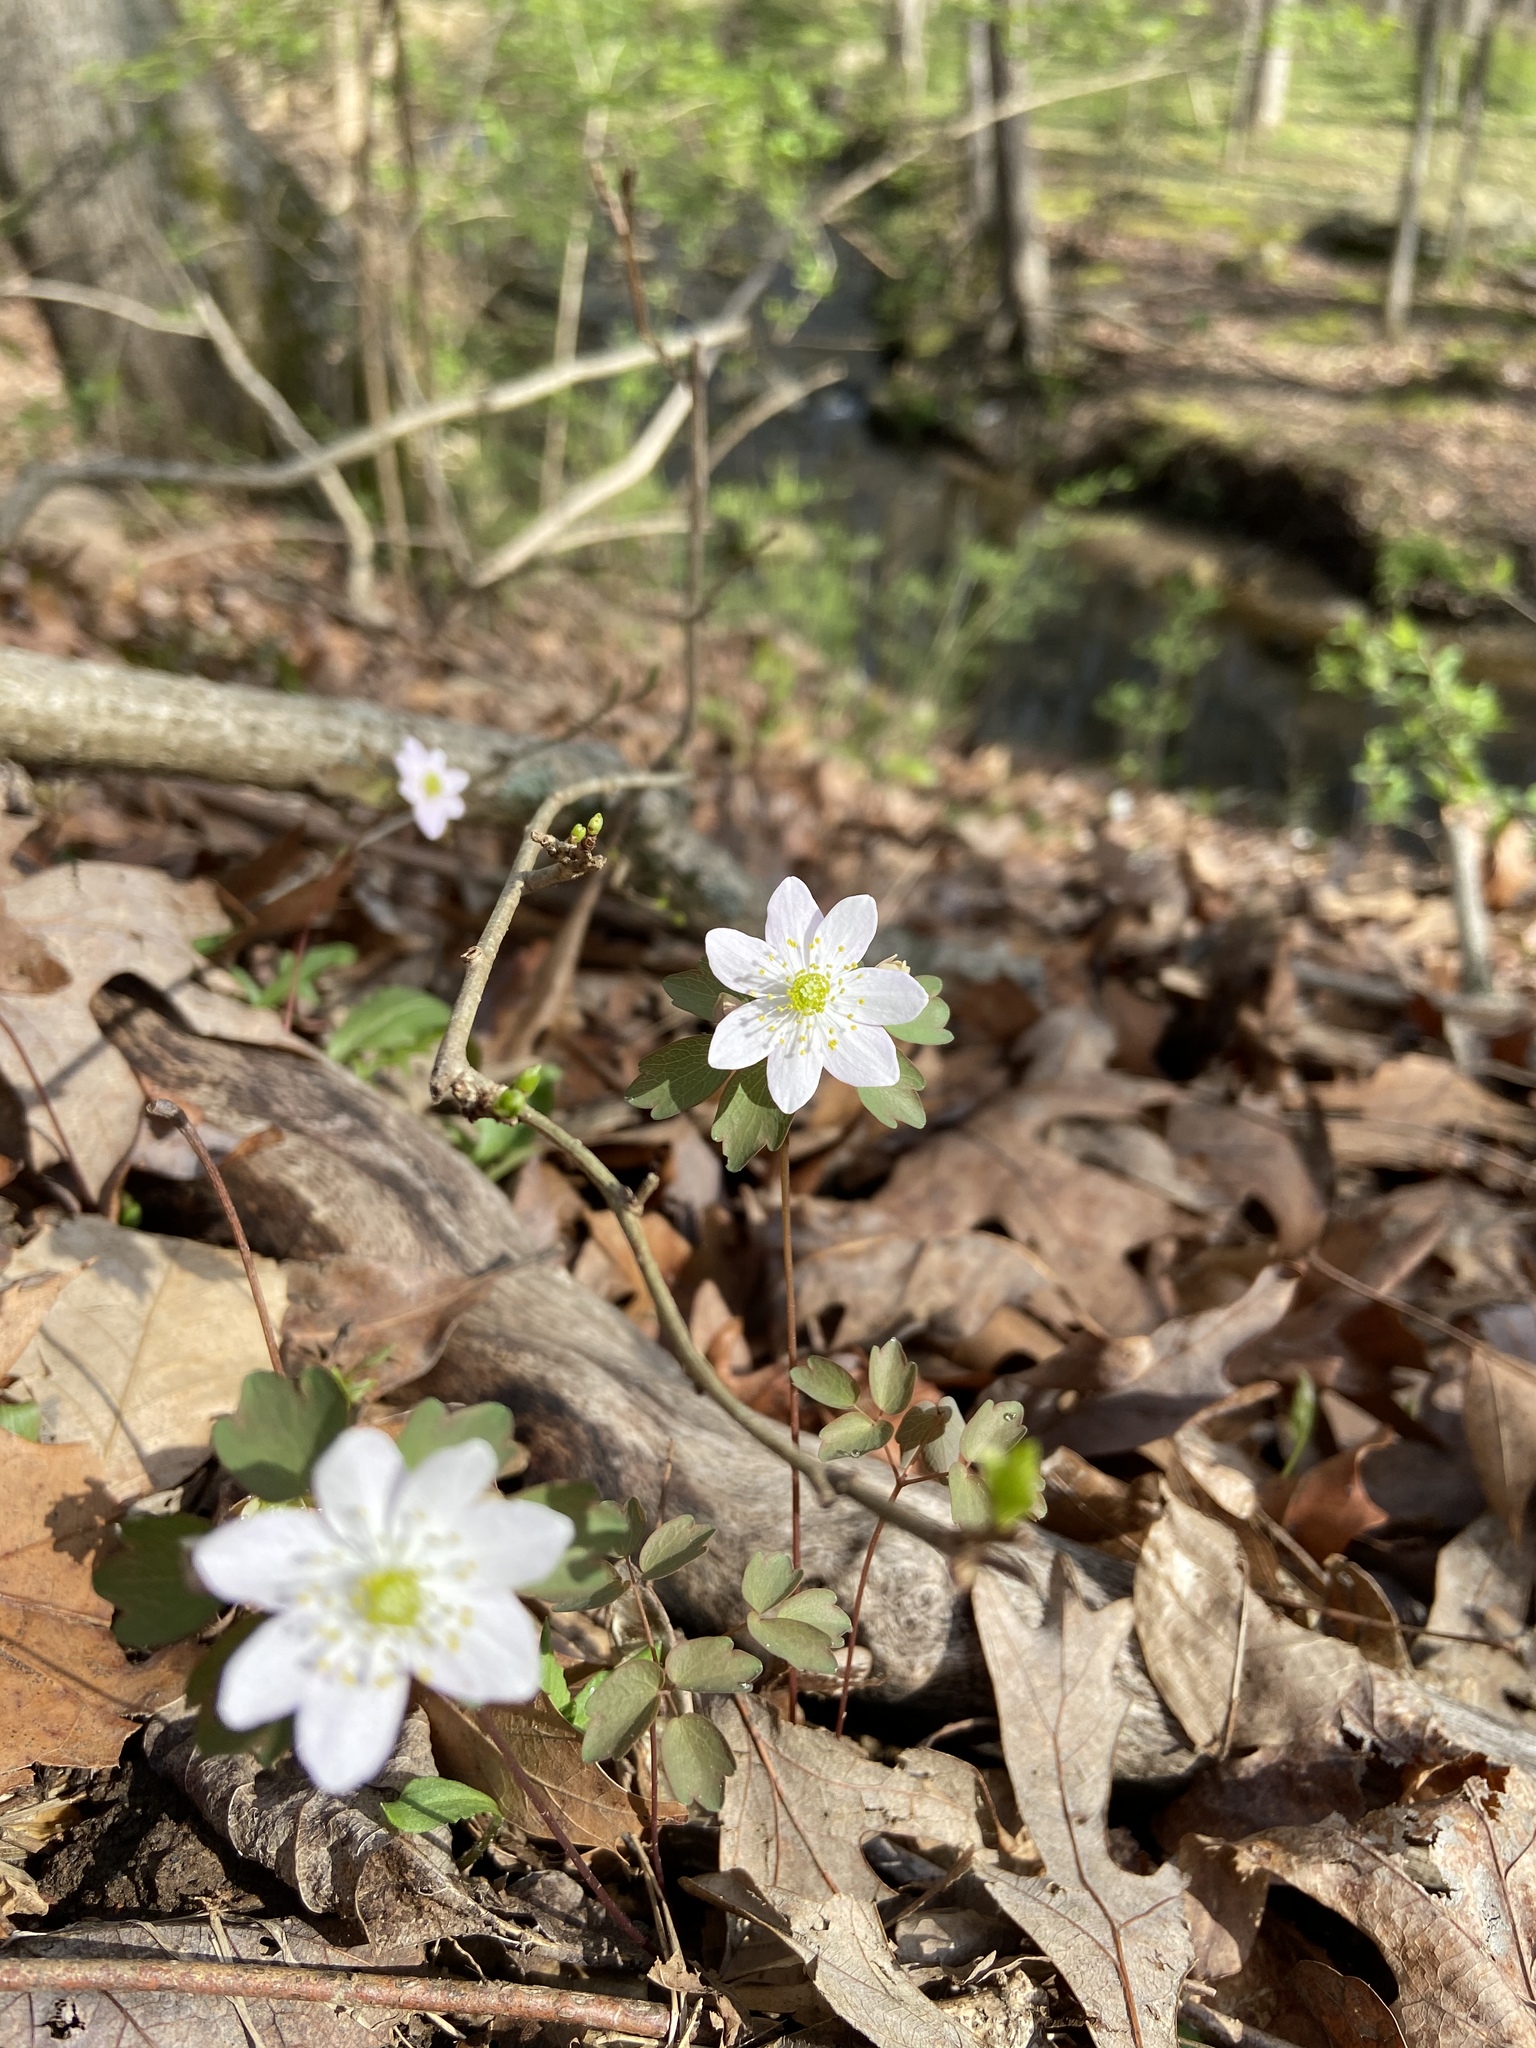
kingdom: Plantae
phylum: Tracheophyta
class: Magnoliopsida
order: Ranunculales
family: Ranunculaceae
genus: Thalictrum
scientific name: Thalictrum thalictroides
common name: Rue-anemone
